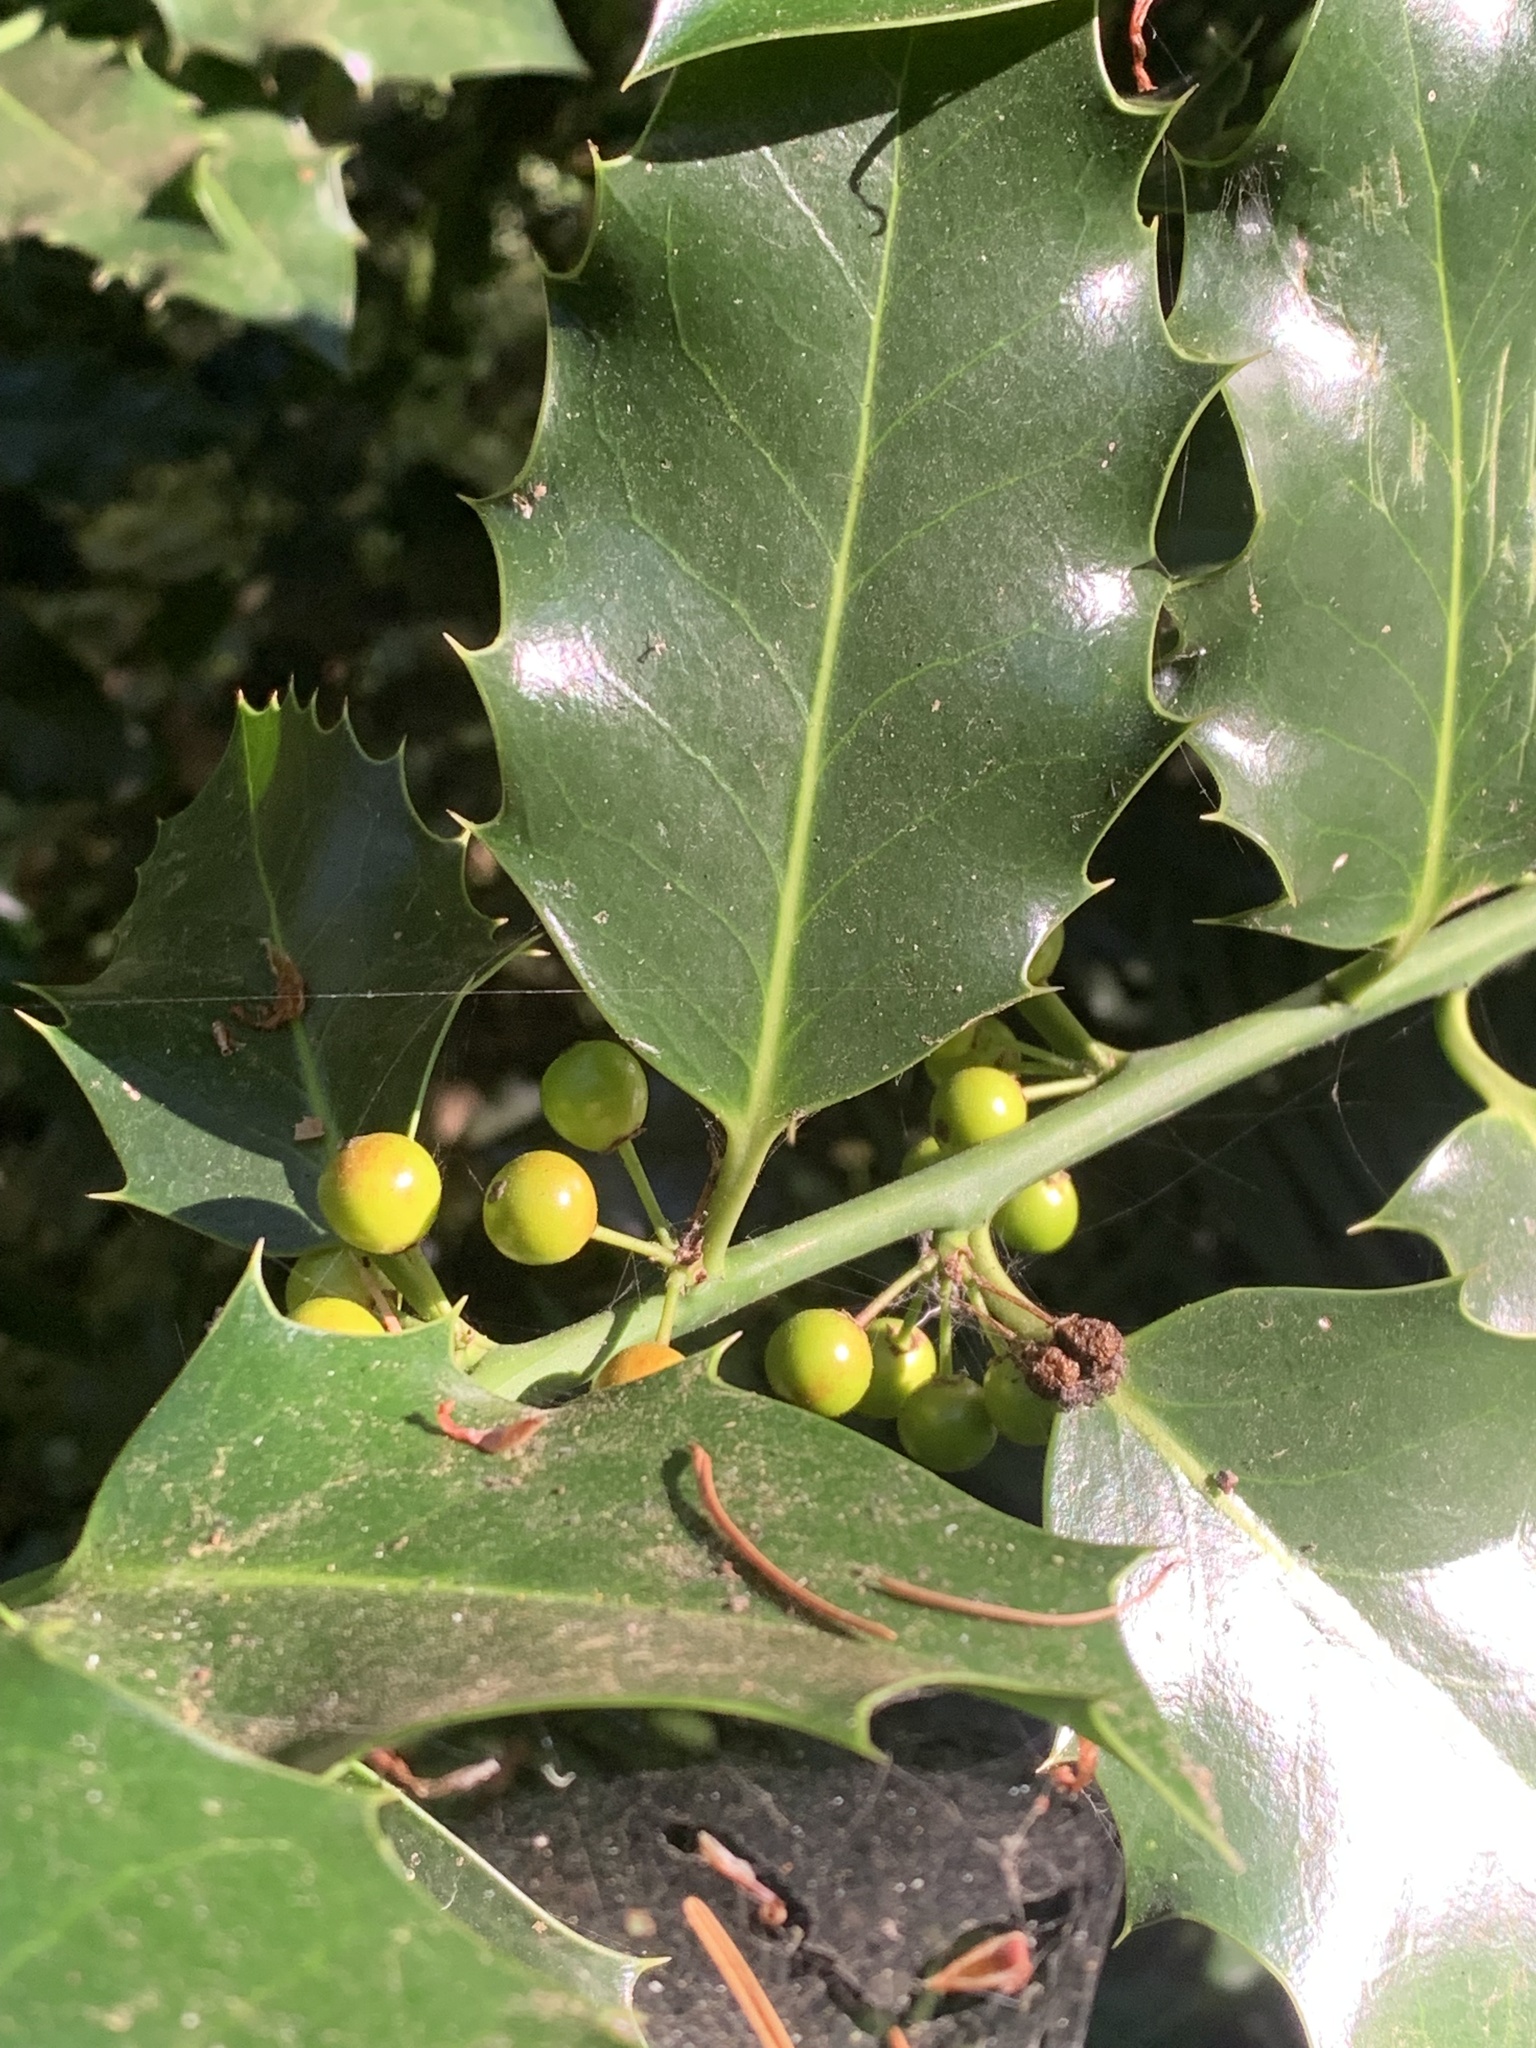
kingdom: Plantae
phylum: Tracheophyta
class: Magnoliopsida
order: Aquifoliales
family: Aquifoliaceae
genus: Ilex
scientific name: Ilex aquifolium
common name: English holly
